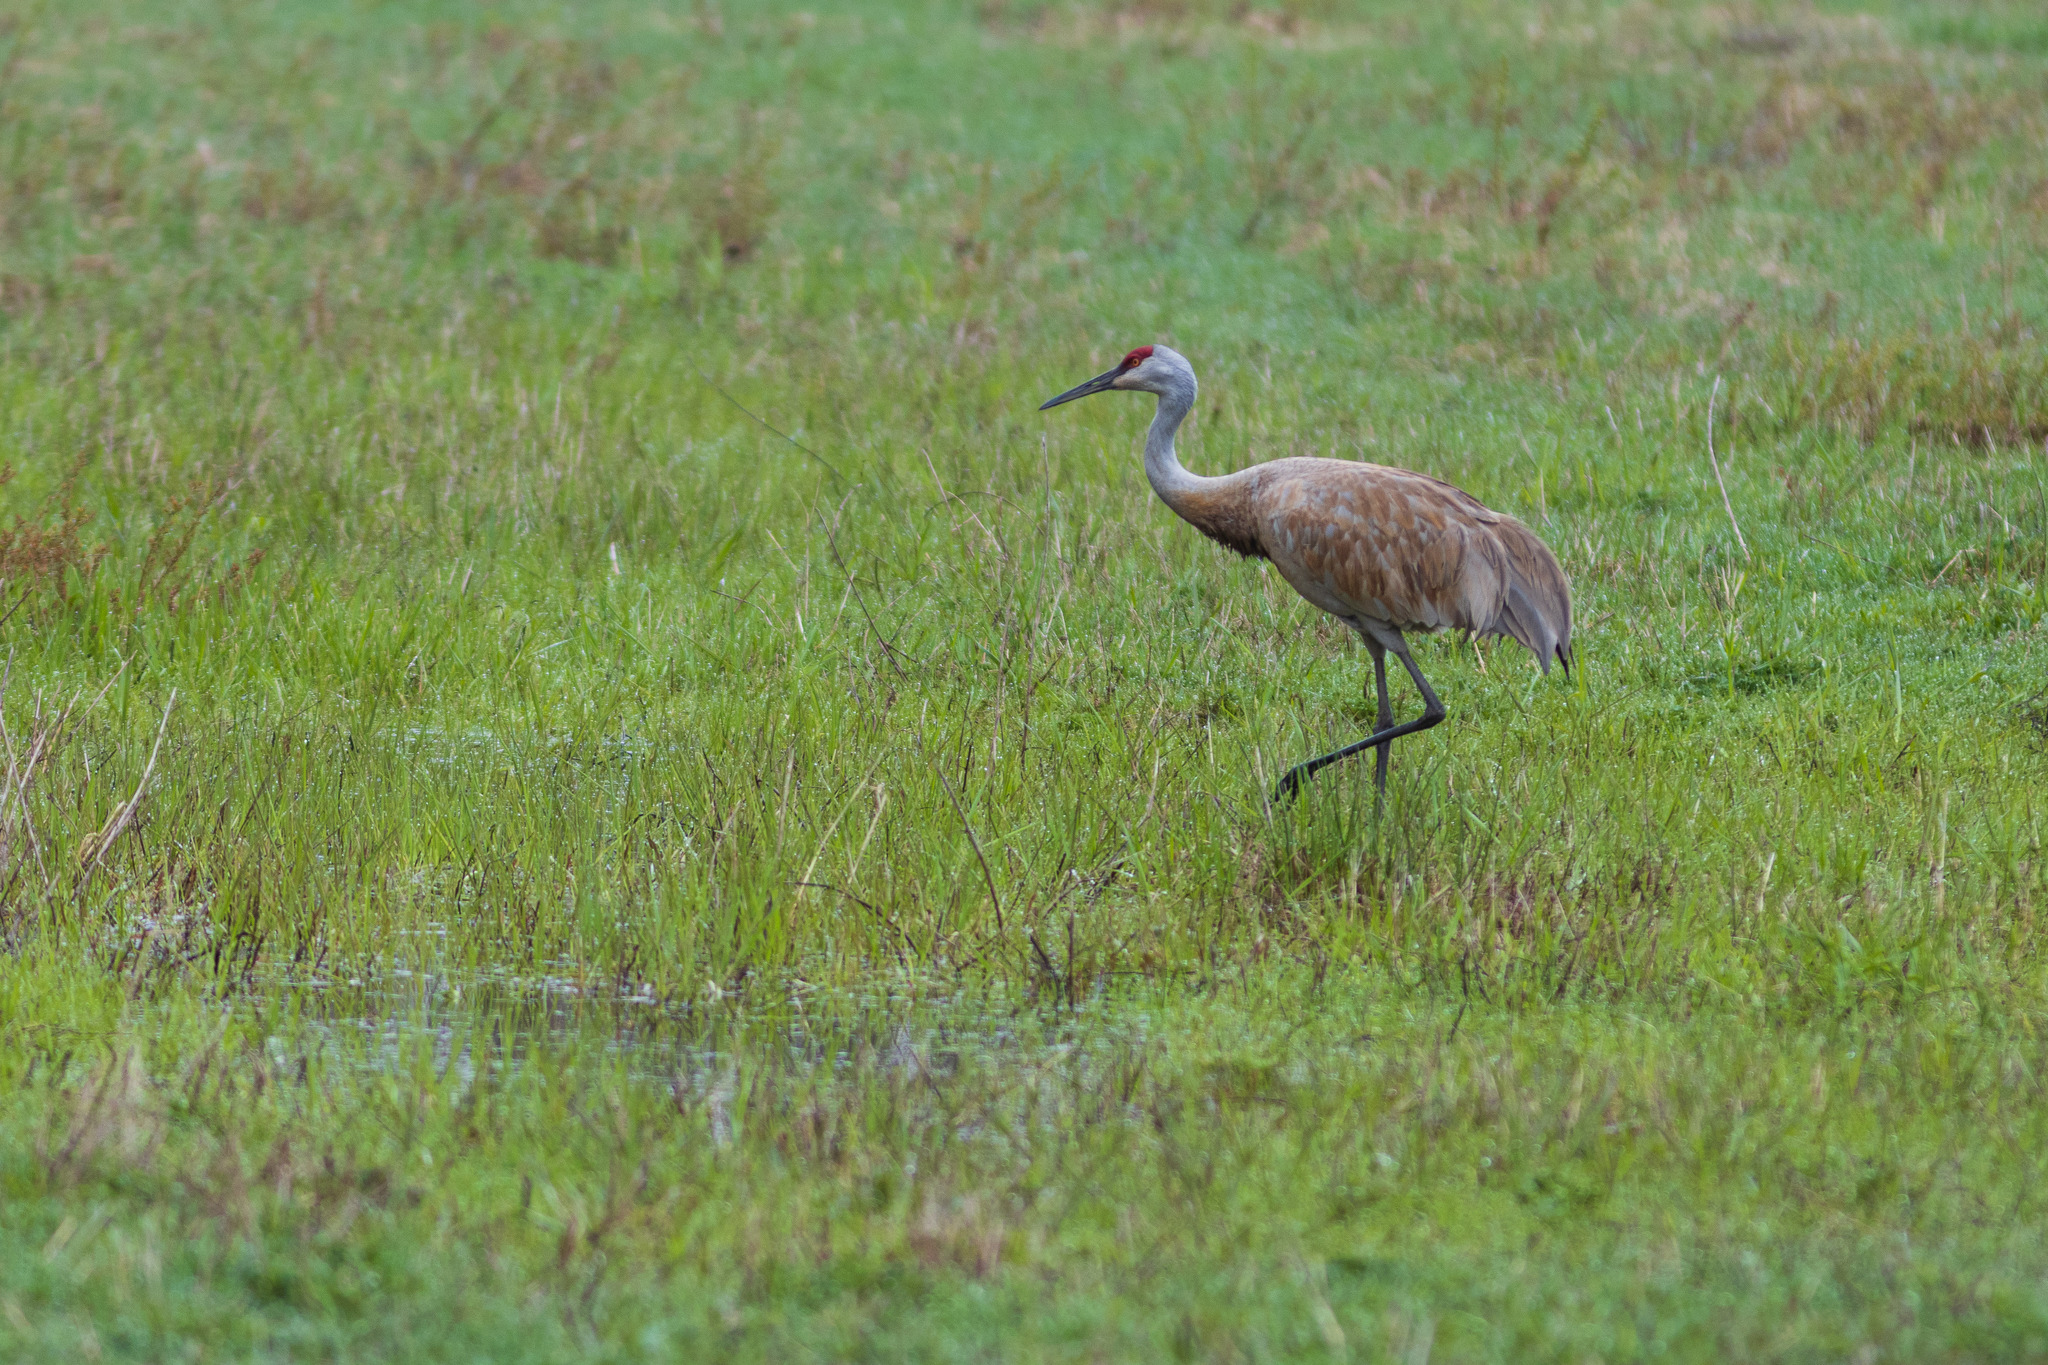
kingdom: Animalia
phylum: Chordata
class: Aves
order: Gruiformes
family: Gruidae
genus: Grus
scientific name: Grus canadensis
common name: Sandhill crane
